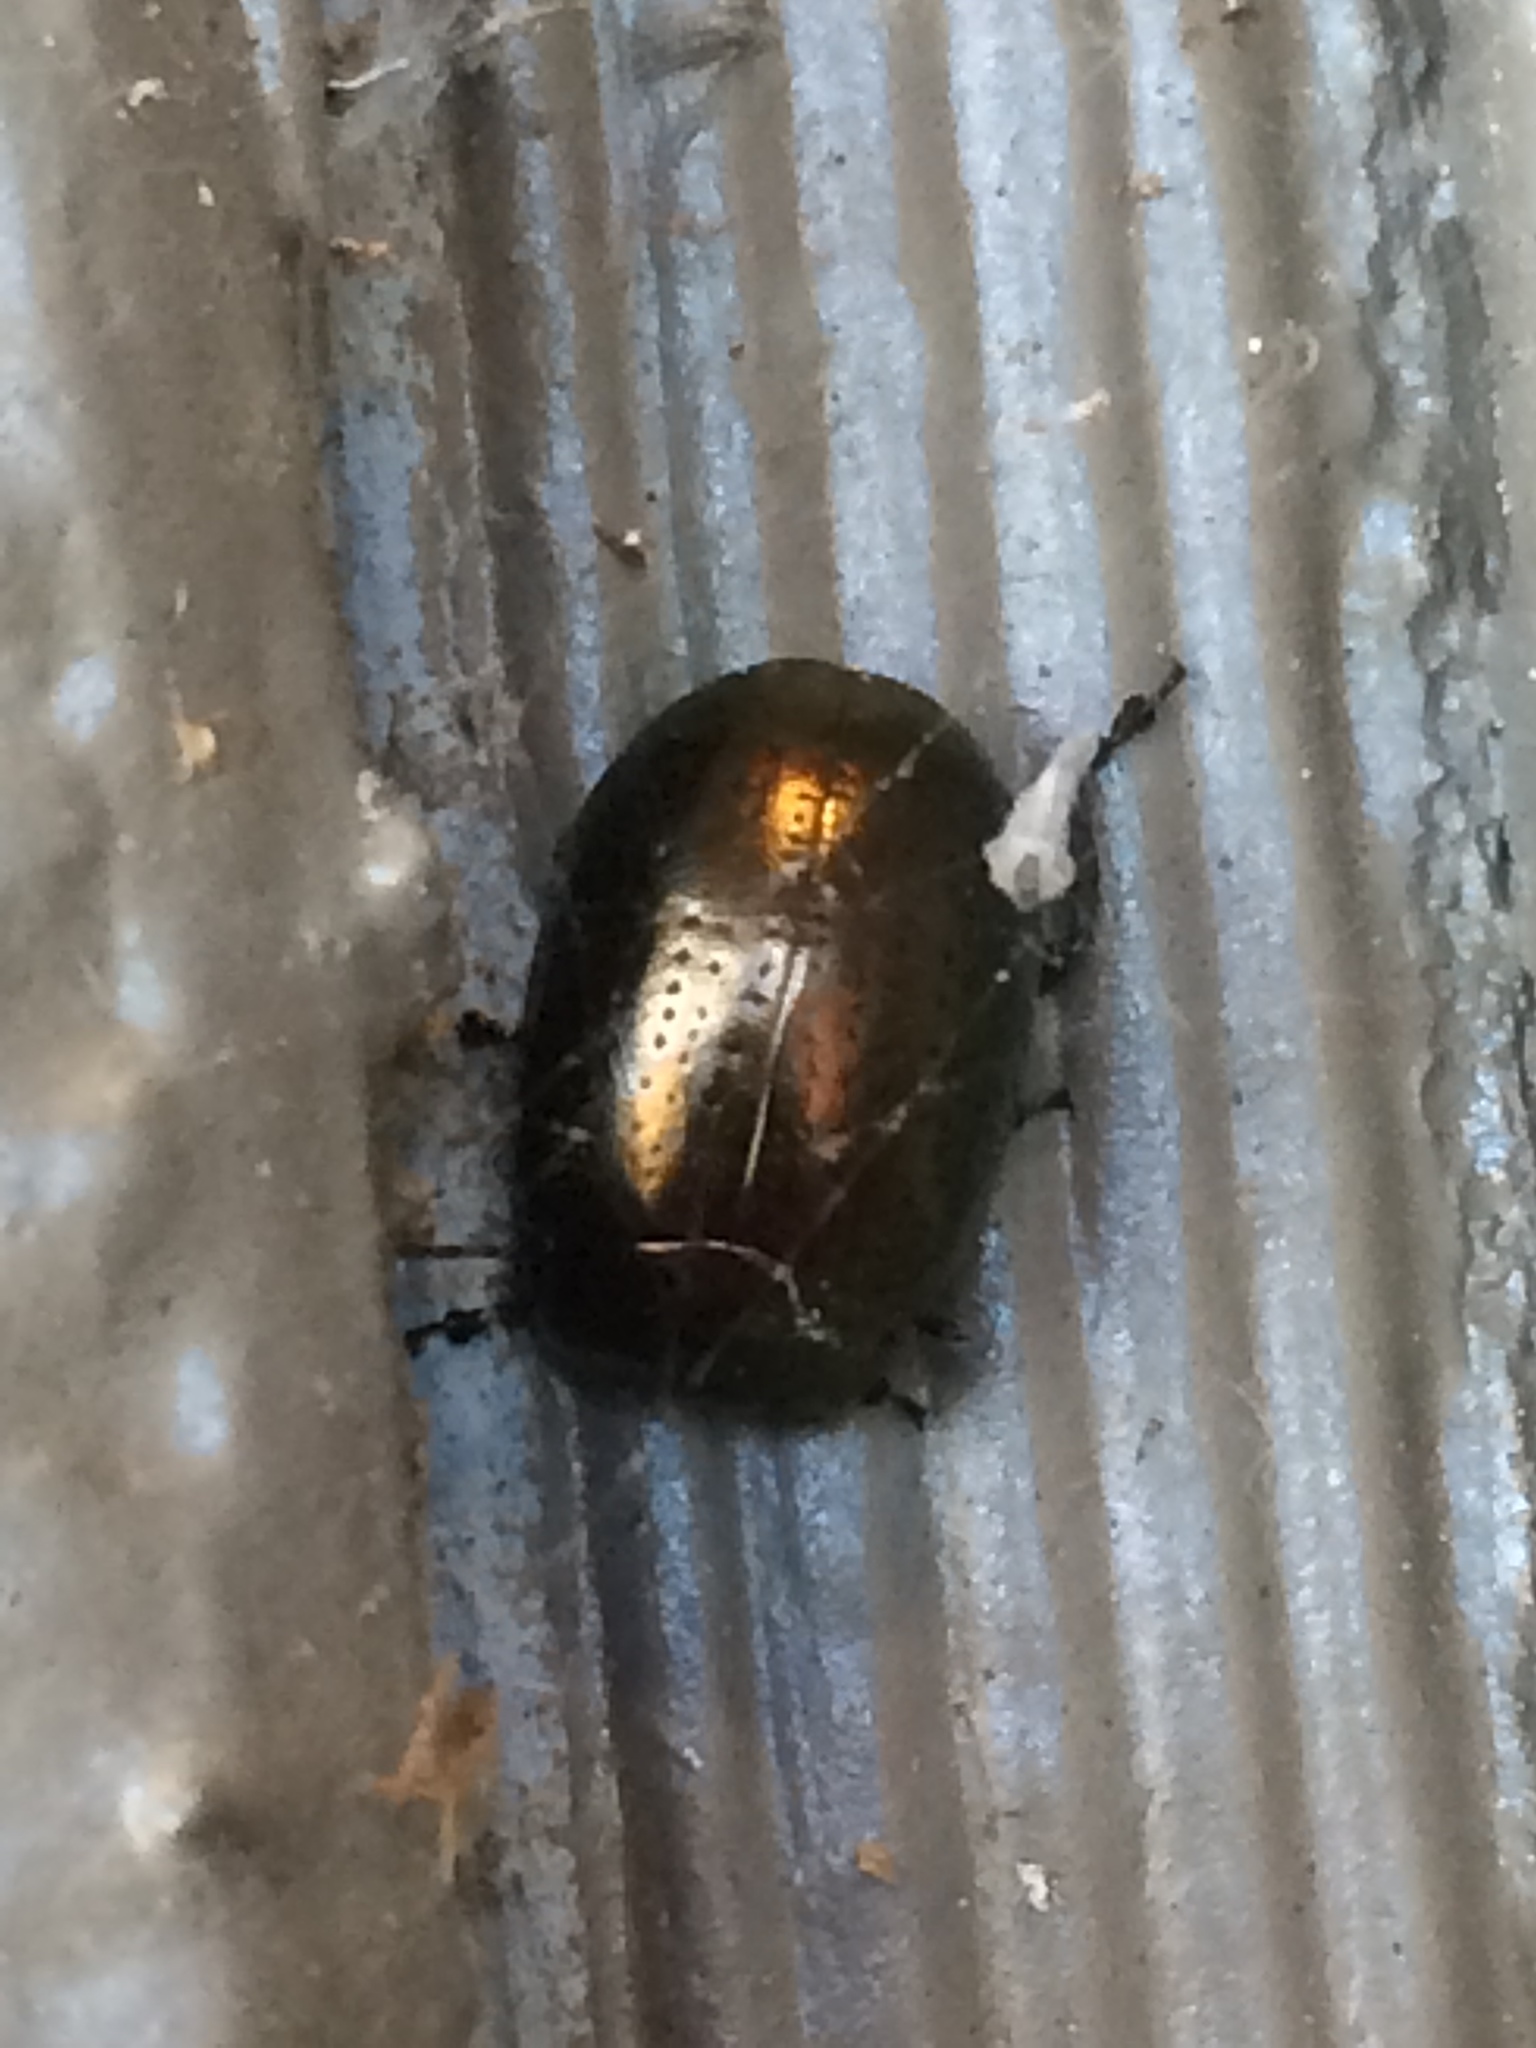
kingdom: Animalia
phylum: Arthropoda
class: Insecta
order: Coleoptera
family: Chrysomelidae
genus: Chrysolina
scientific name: Chrysolina hyperici
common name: St. johnswort beetle
